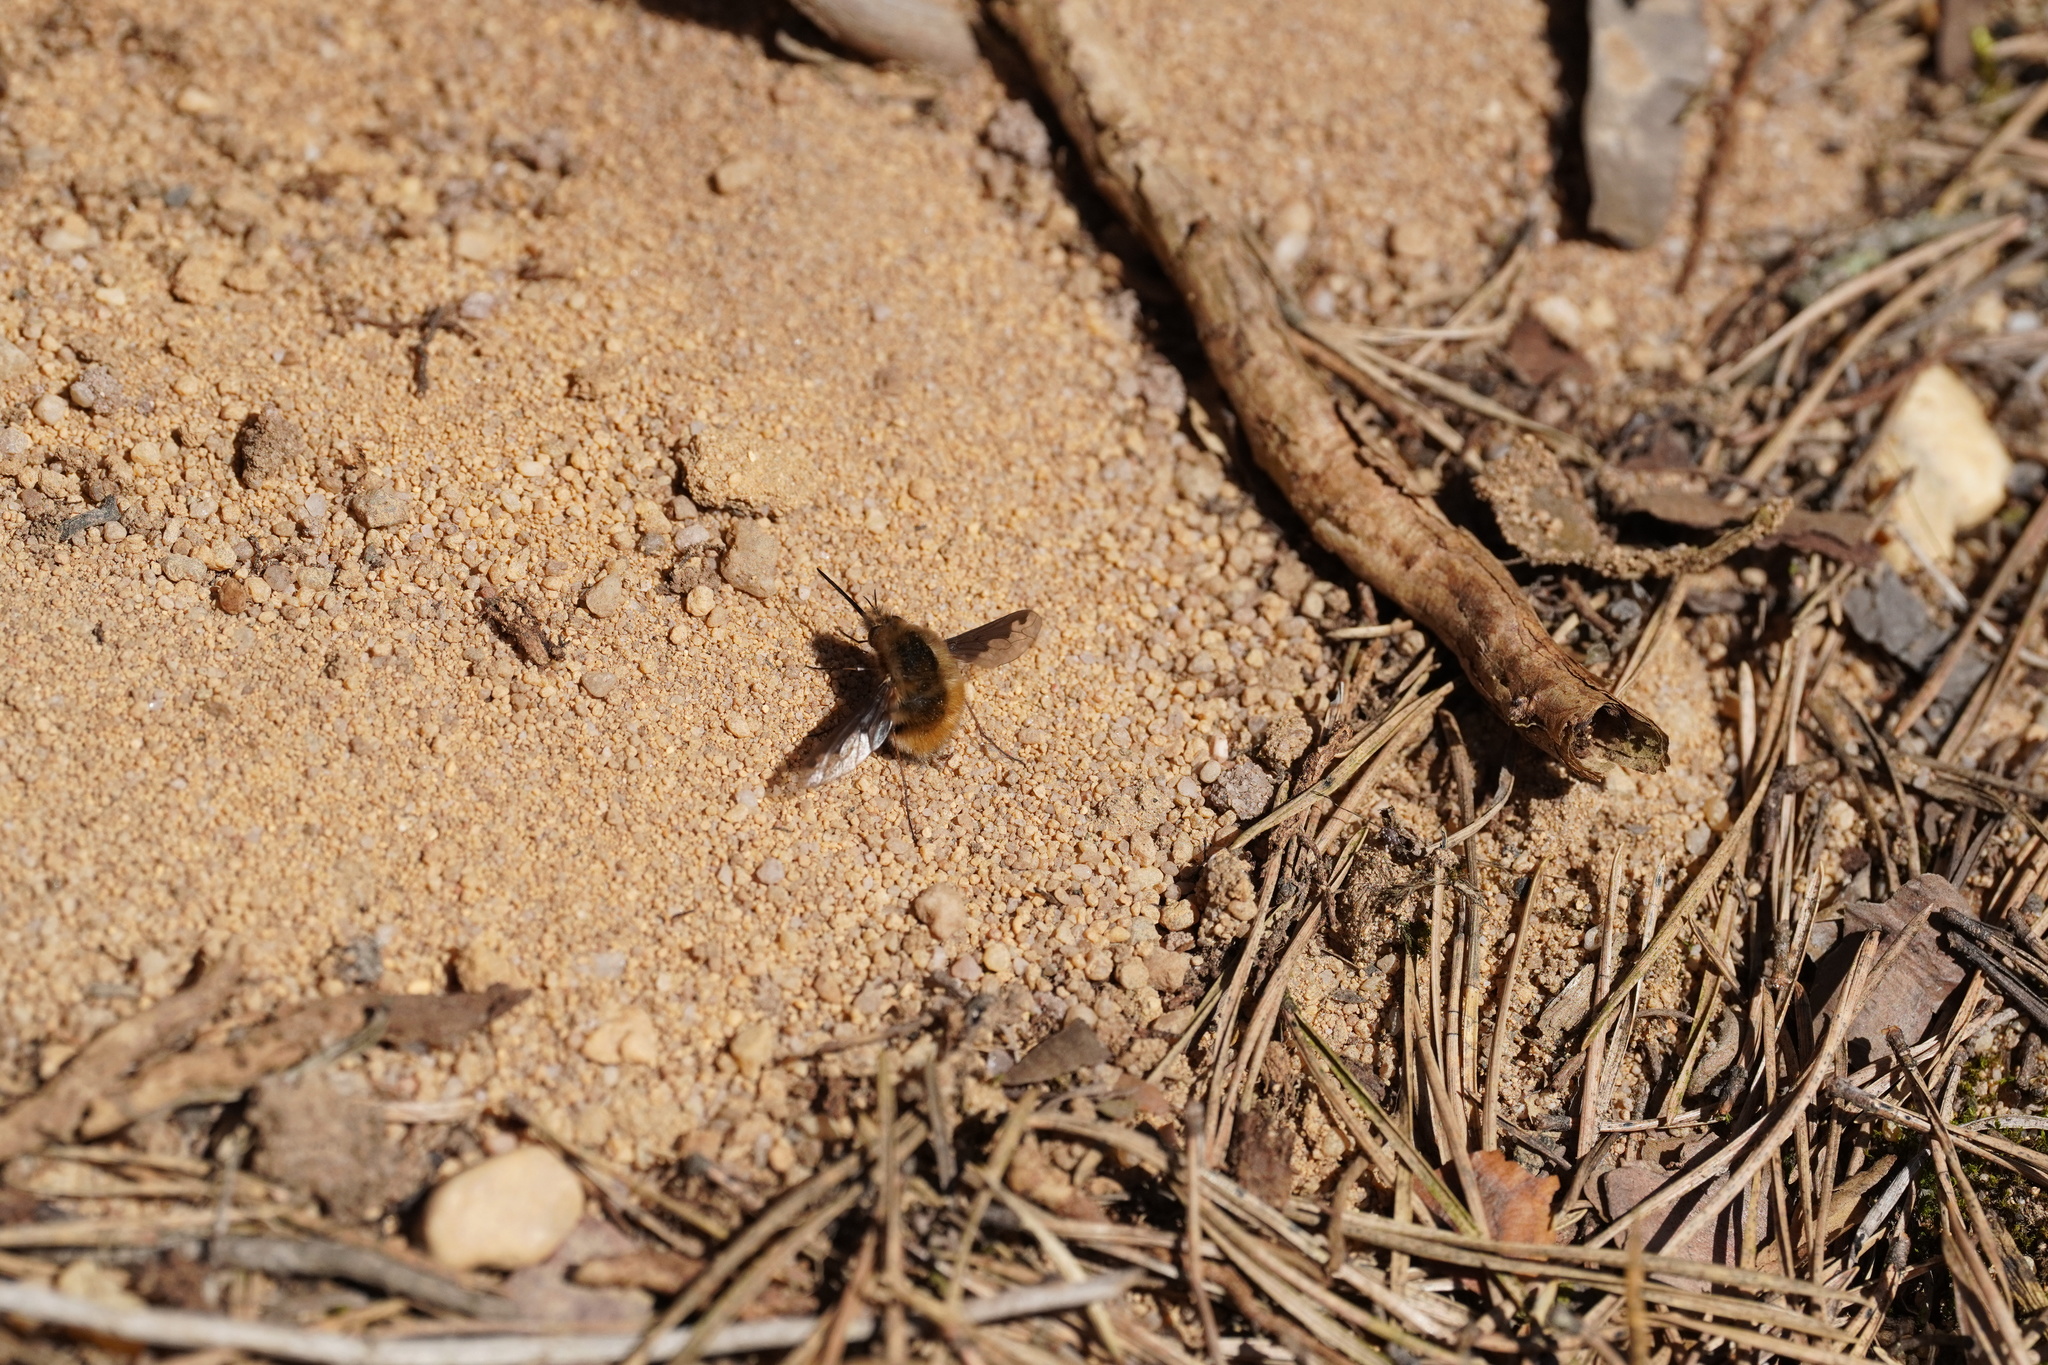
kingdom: Animalia
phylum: Arthropoda
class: Insecta
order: Diptera
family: Bombyliidae
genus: Bombylius
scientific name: Bombylius major
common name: Bee fly
